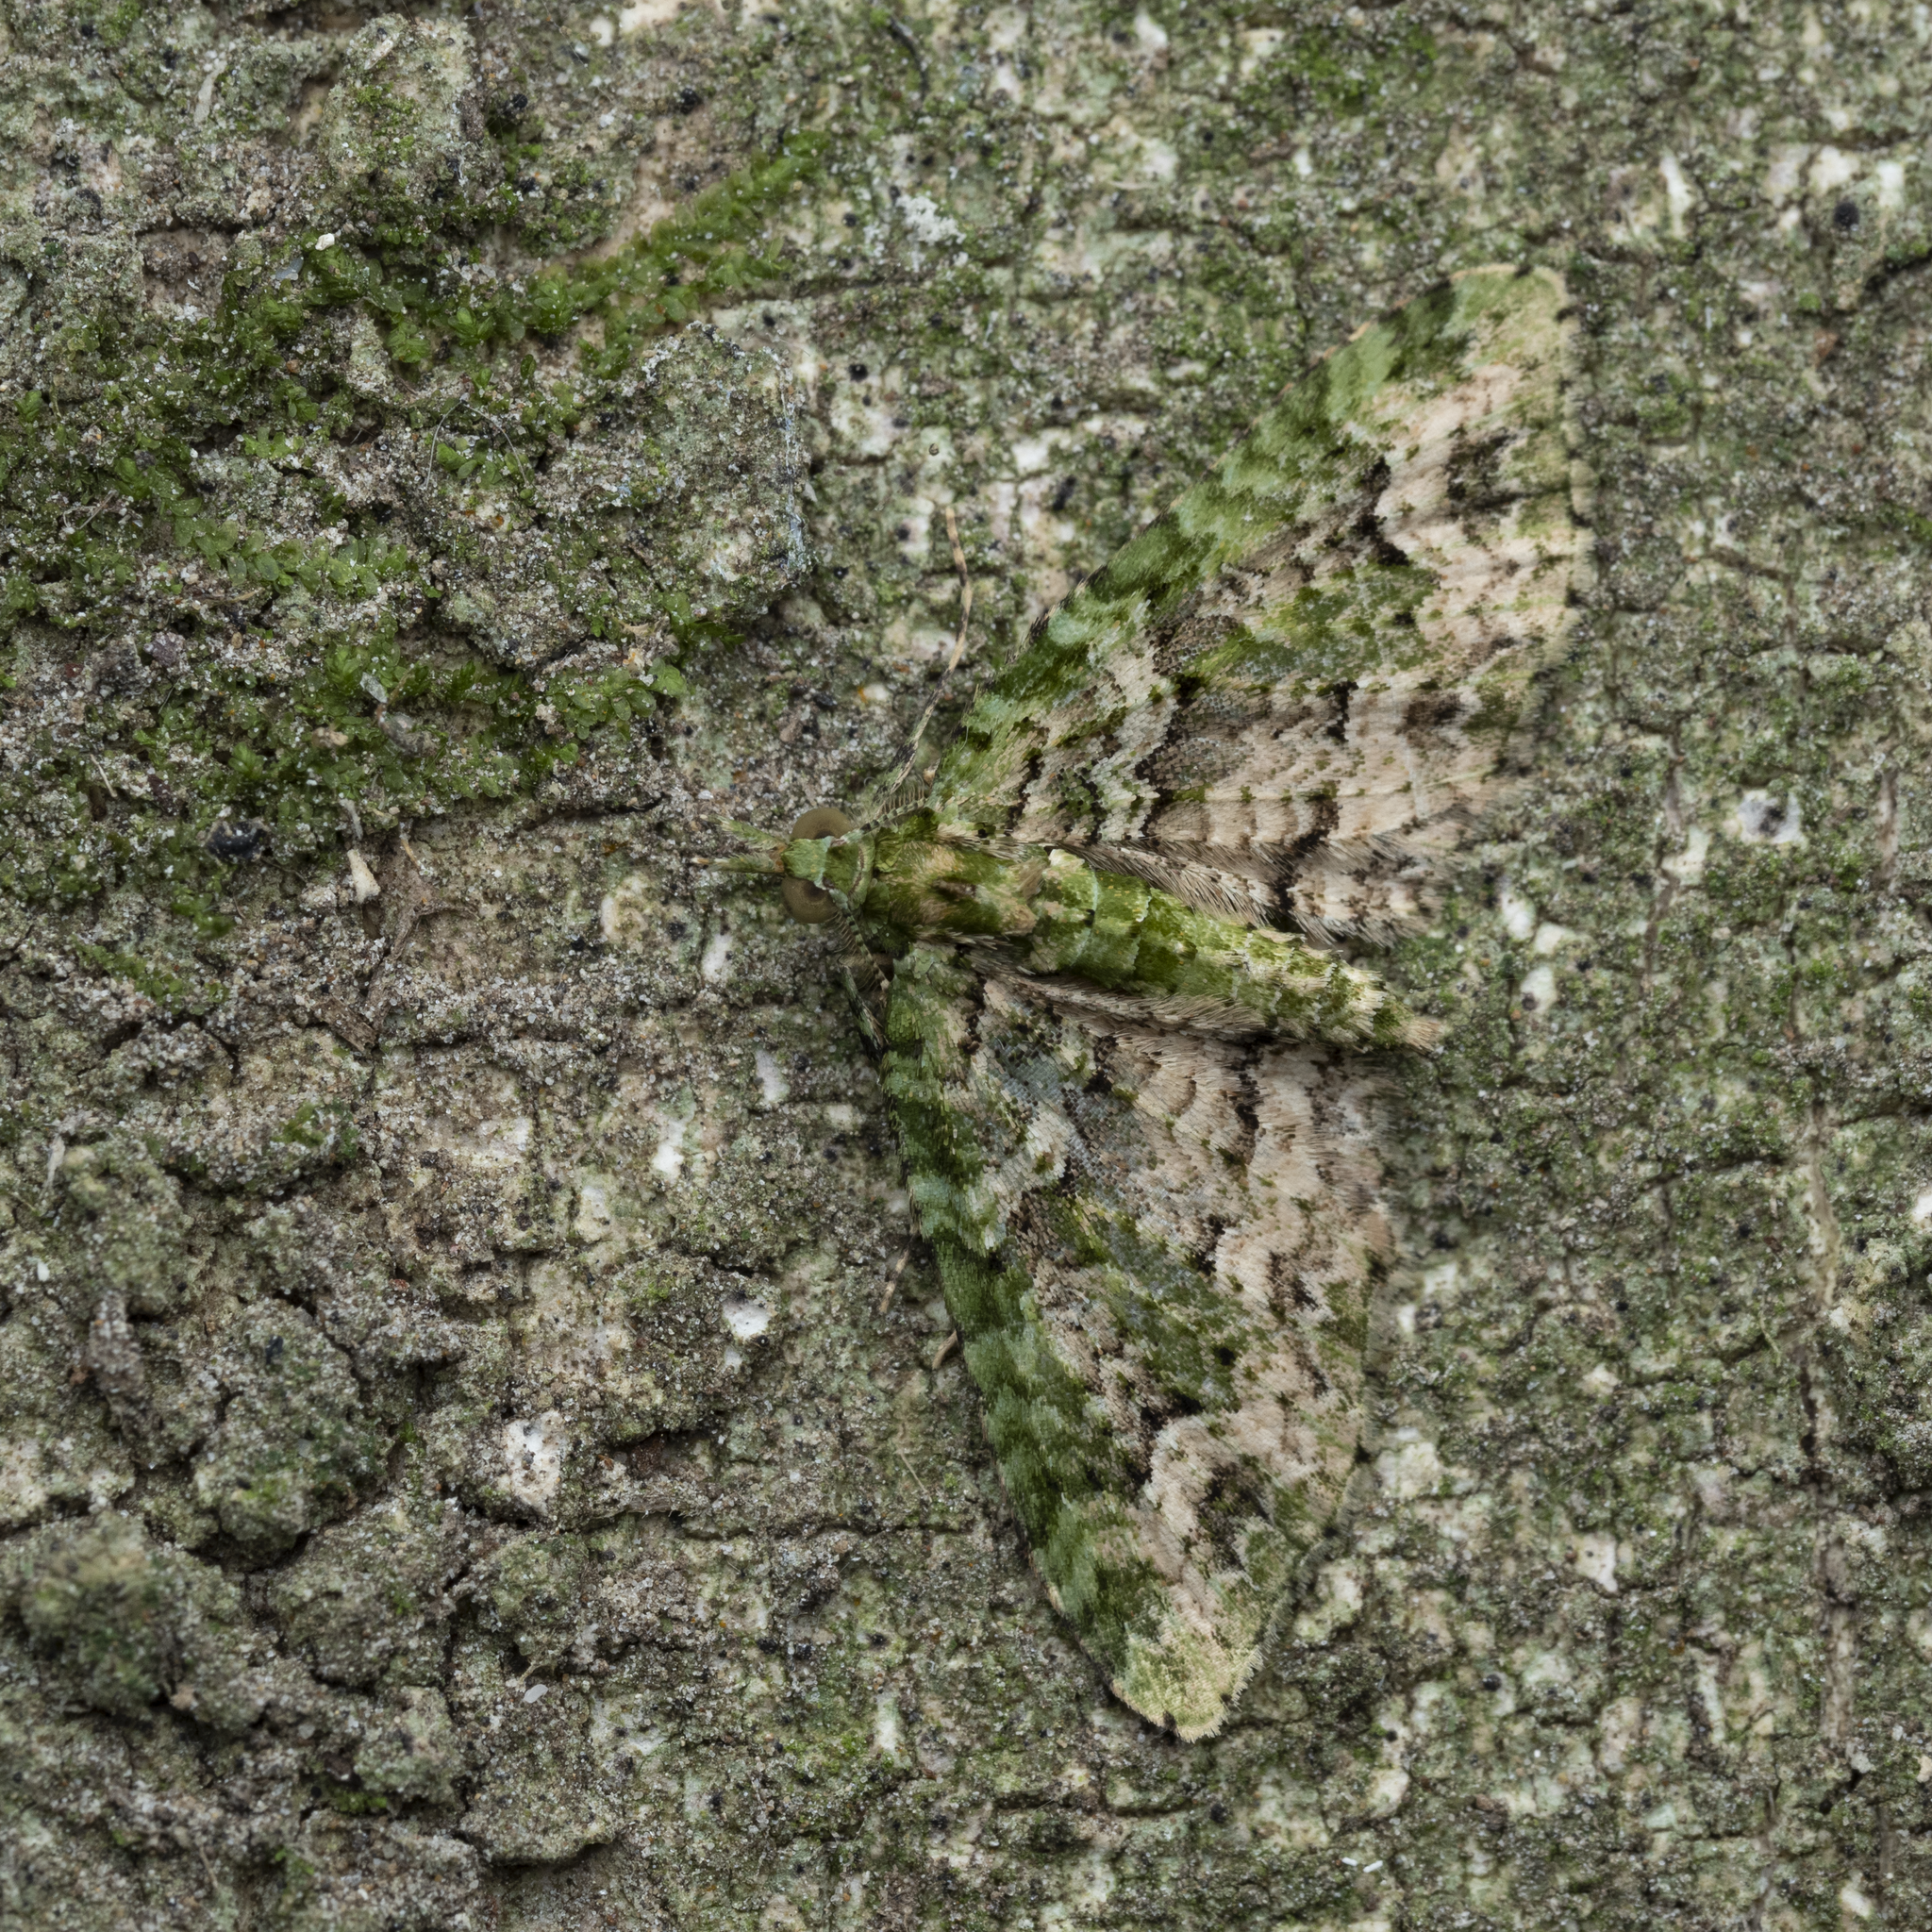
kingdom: Animalia
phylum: Arthropoda
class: Insecta
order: Lepidoptera
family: Geometridae
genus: Pasiphila
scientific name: Pasiphila muscosata
